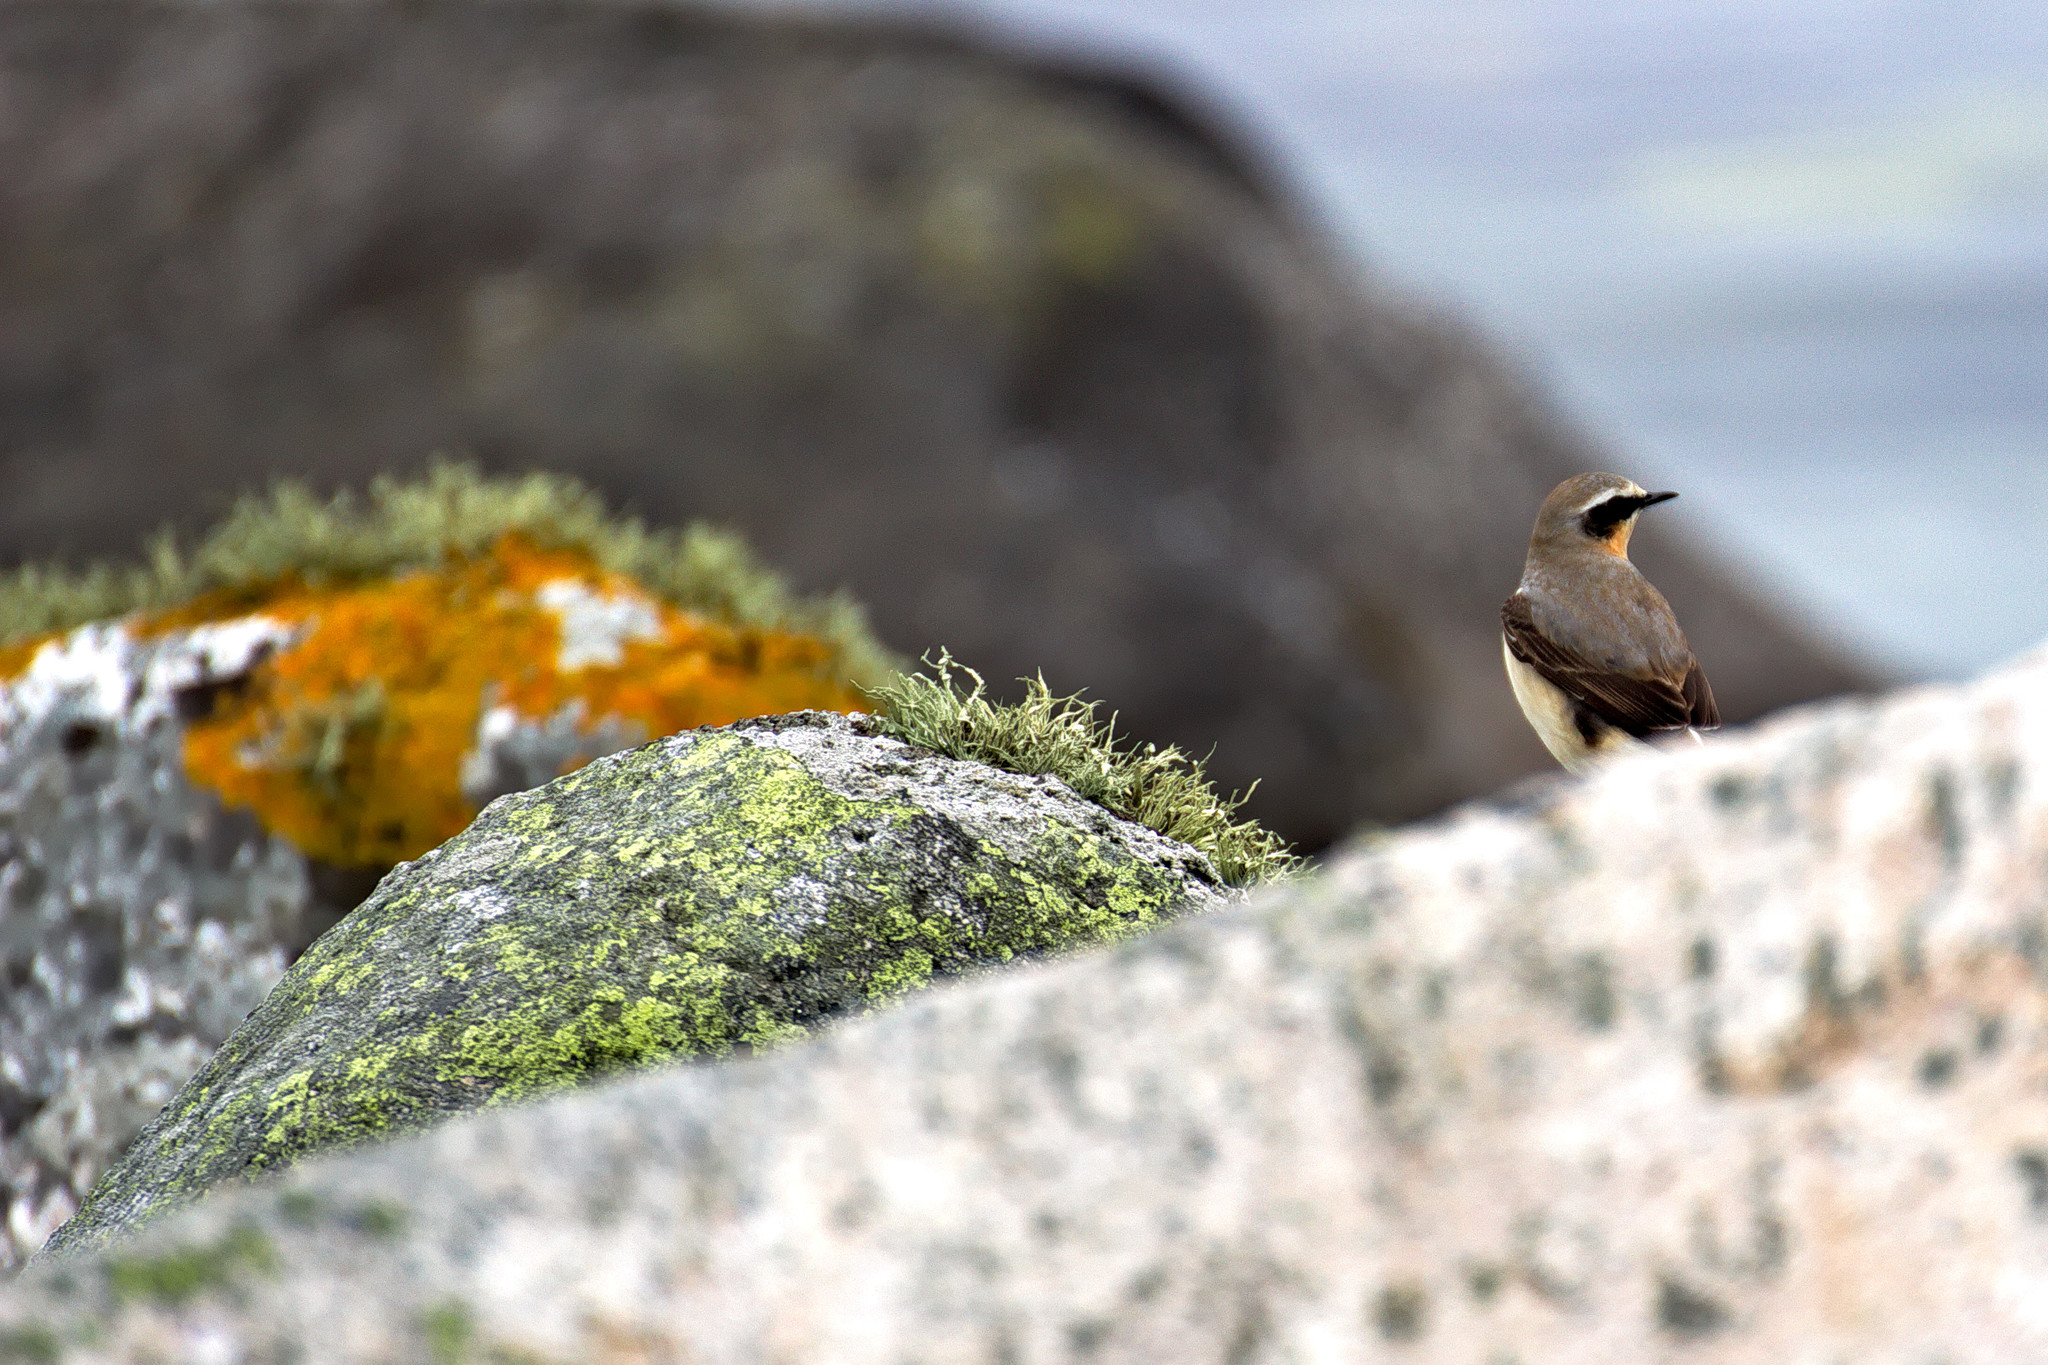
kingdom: Animalia
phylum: Chordata
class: Aves
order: Passeriformes
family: Muscicapidae
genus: Oenanthe
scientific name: Oenanthe oenanthe
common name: Northern wheatear
